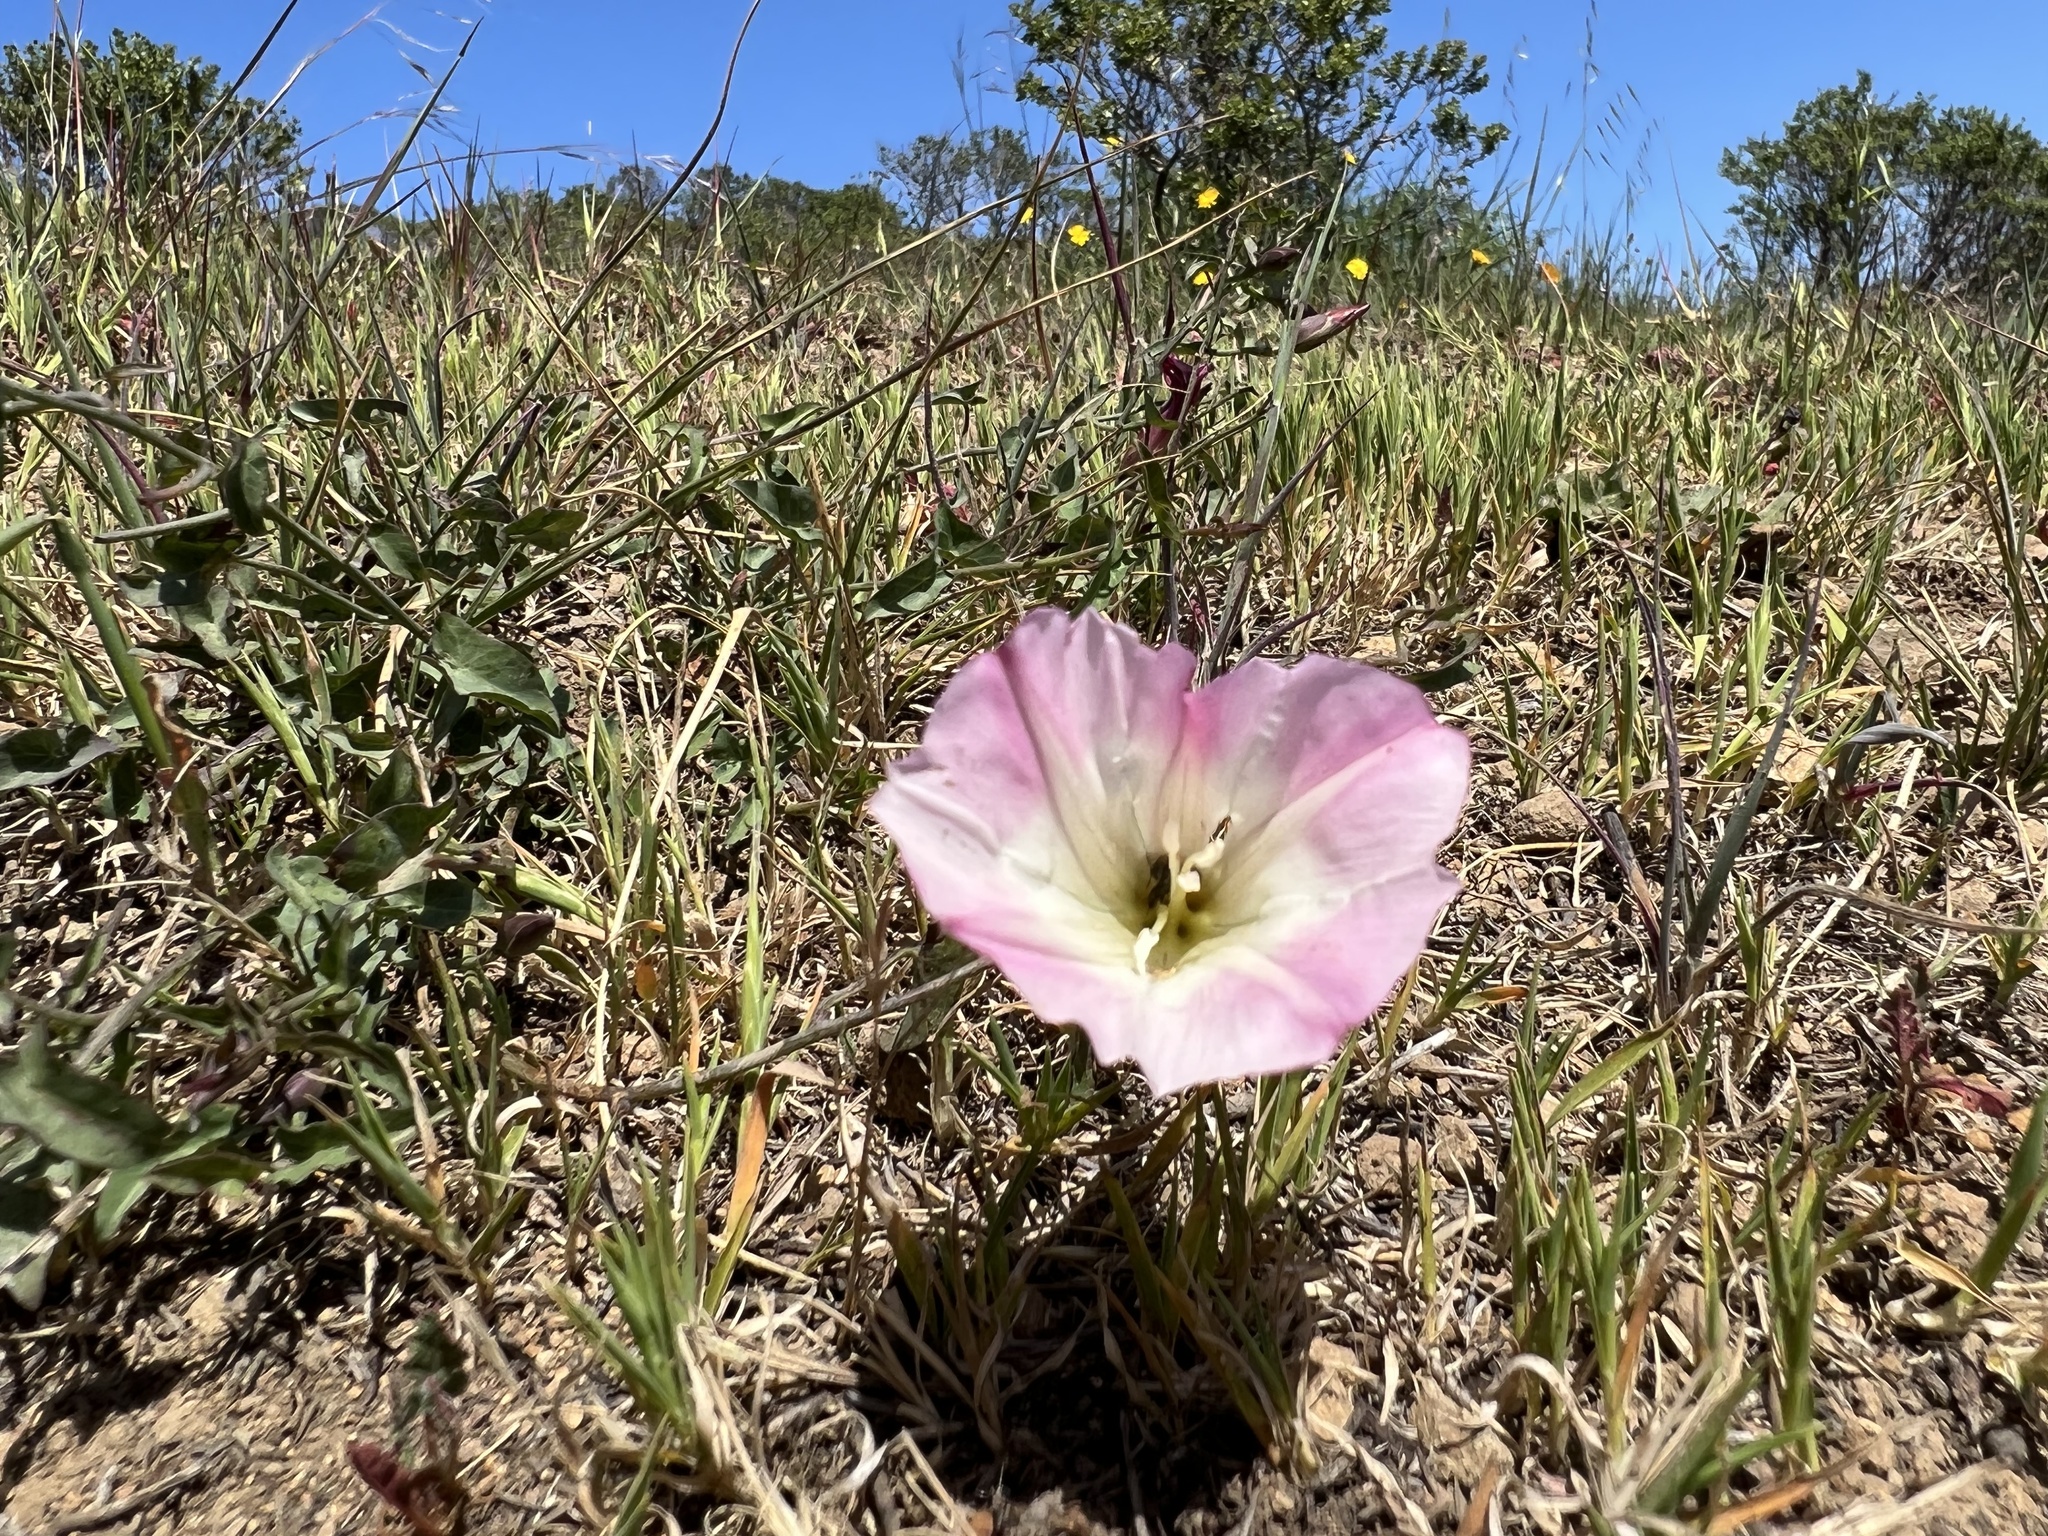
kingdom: Plantae
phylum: Tracheophyta
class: Magnoliopsida
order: Solanales
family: Convolvulaceae
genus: Calystegia
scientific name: Calystegia purpurata
